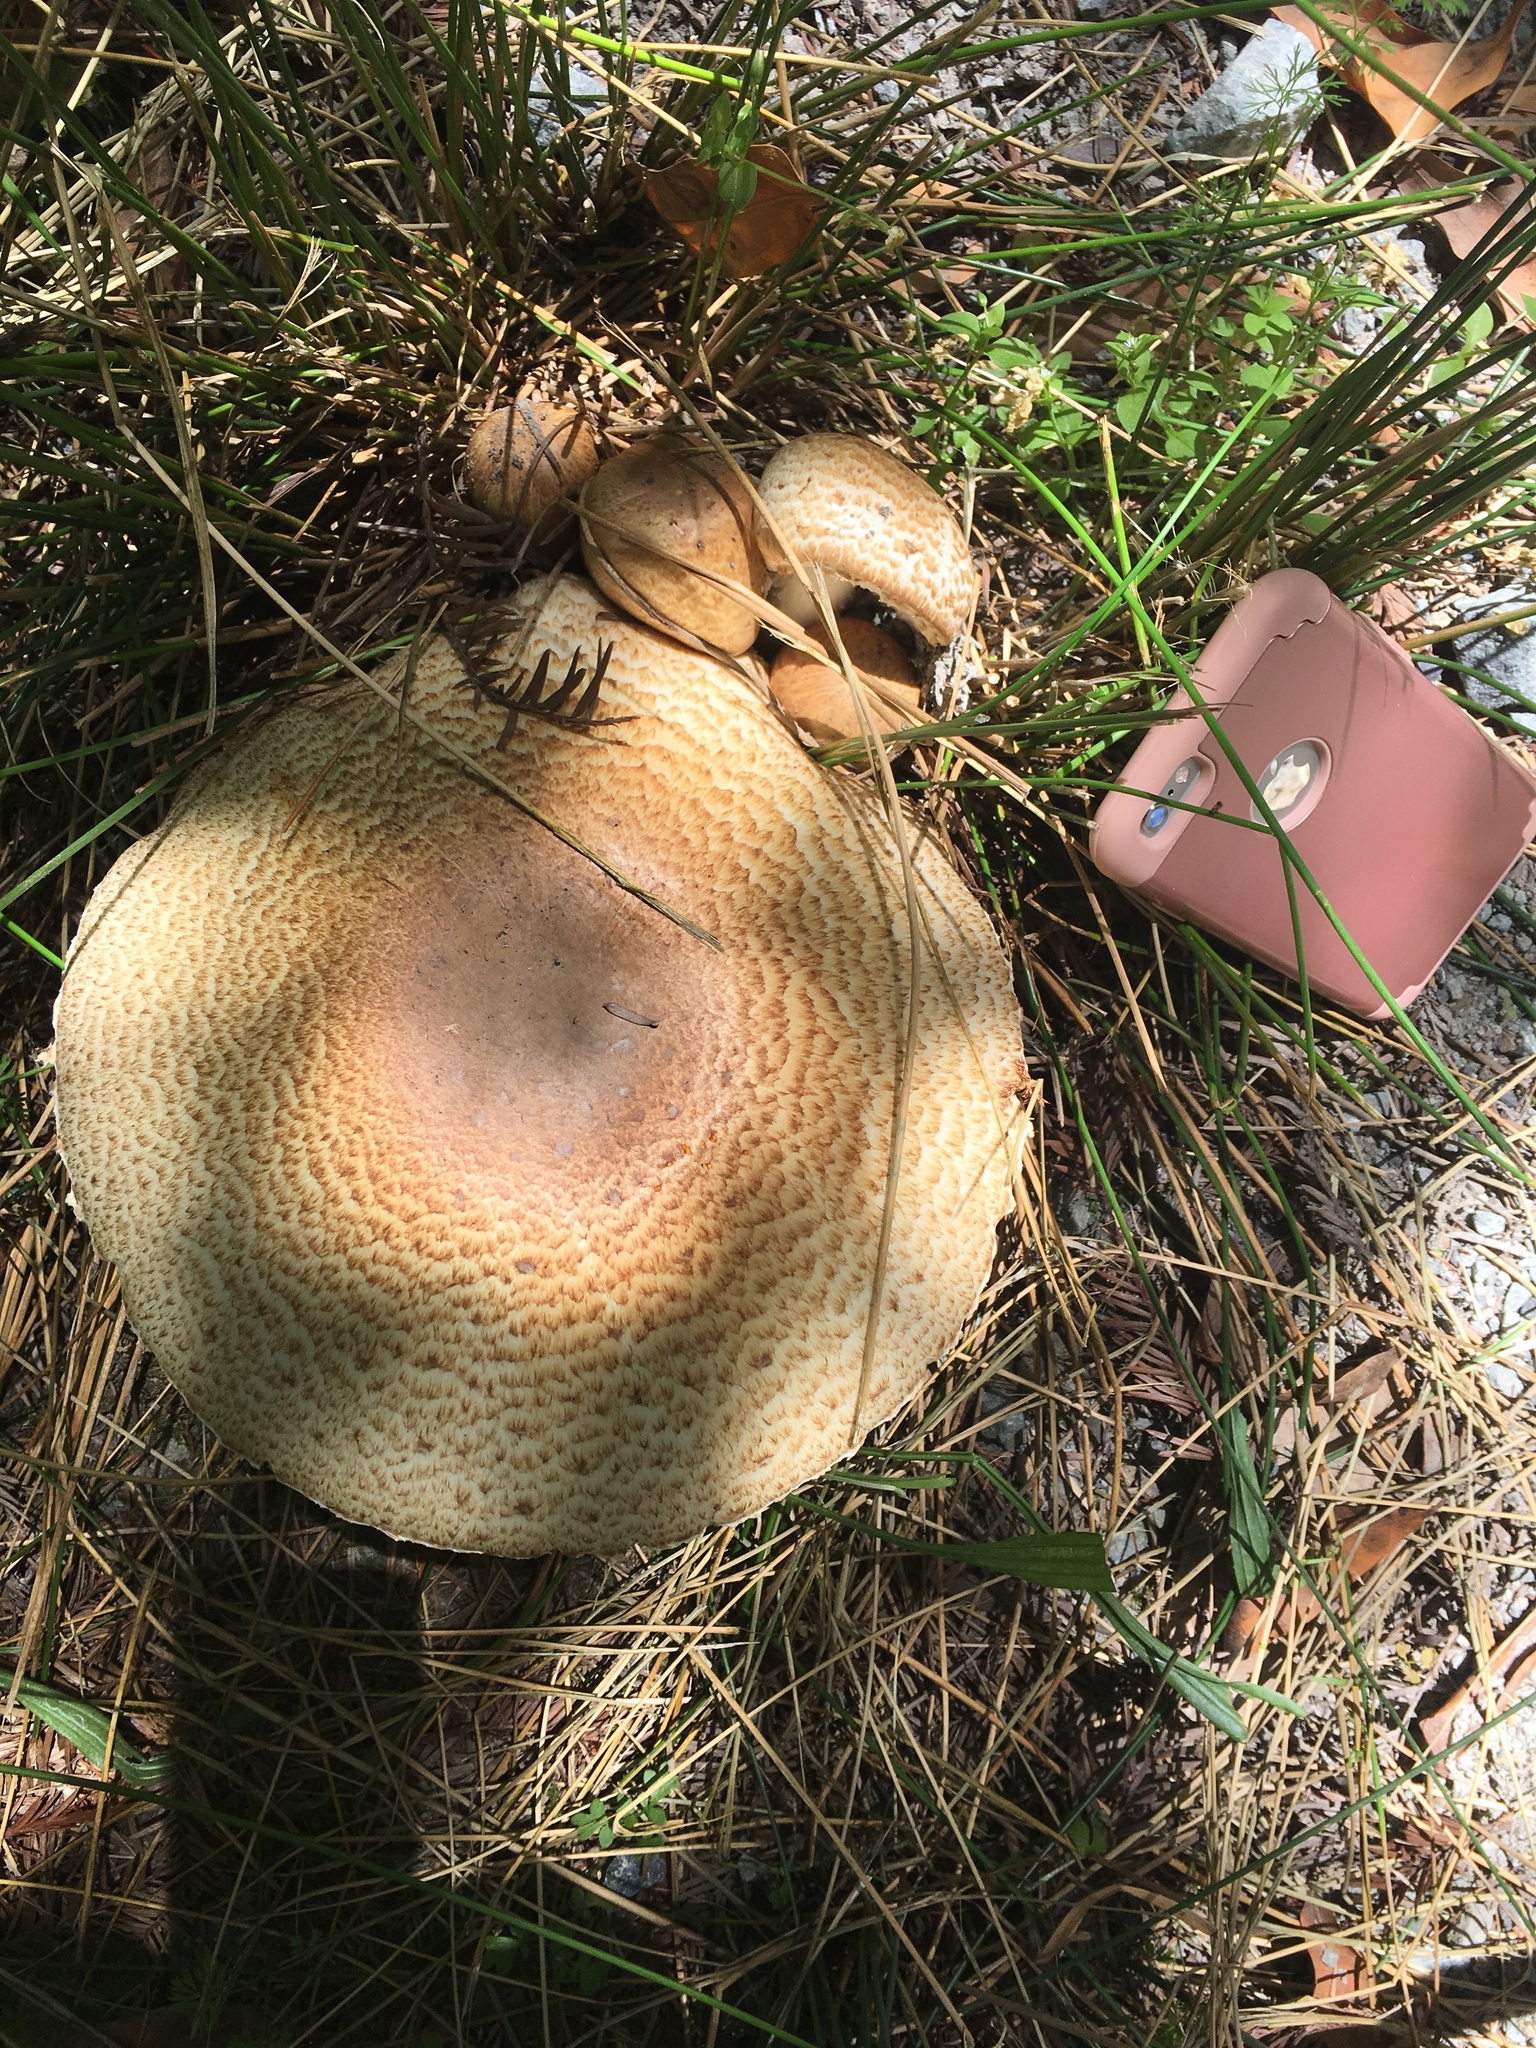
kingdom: Fungi
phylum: Basidiomycota
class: Agaricomycetes
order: Agaricales
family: Agaricaceae
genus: Agaricus
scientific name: Agaricus augustus
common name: Prince
